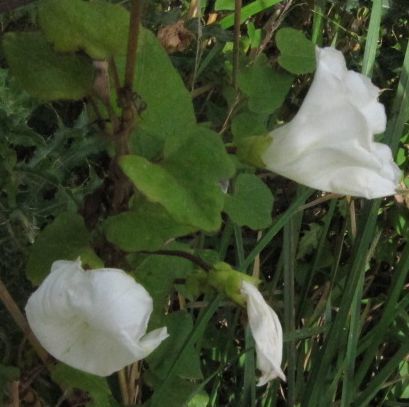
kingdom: Plantae
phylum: Tracheophyta
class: Magnoliopsida
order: Solanales
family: Convolvulaceae
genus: Calystegia
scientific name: Calystegia tuguriorum
